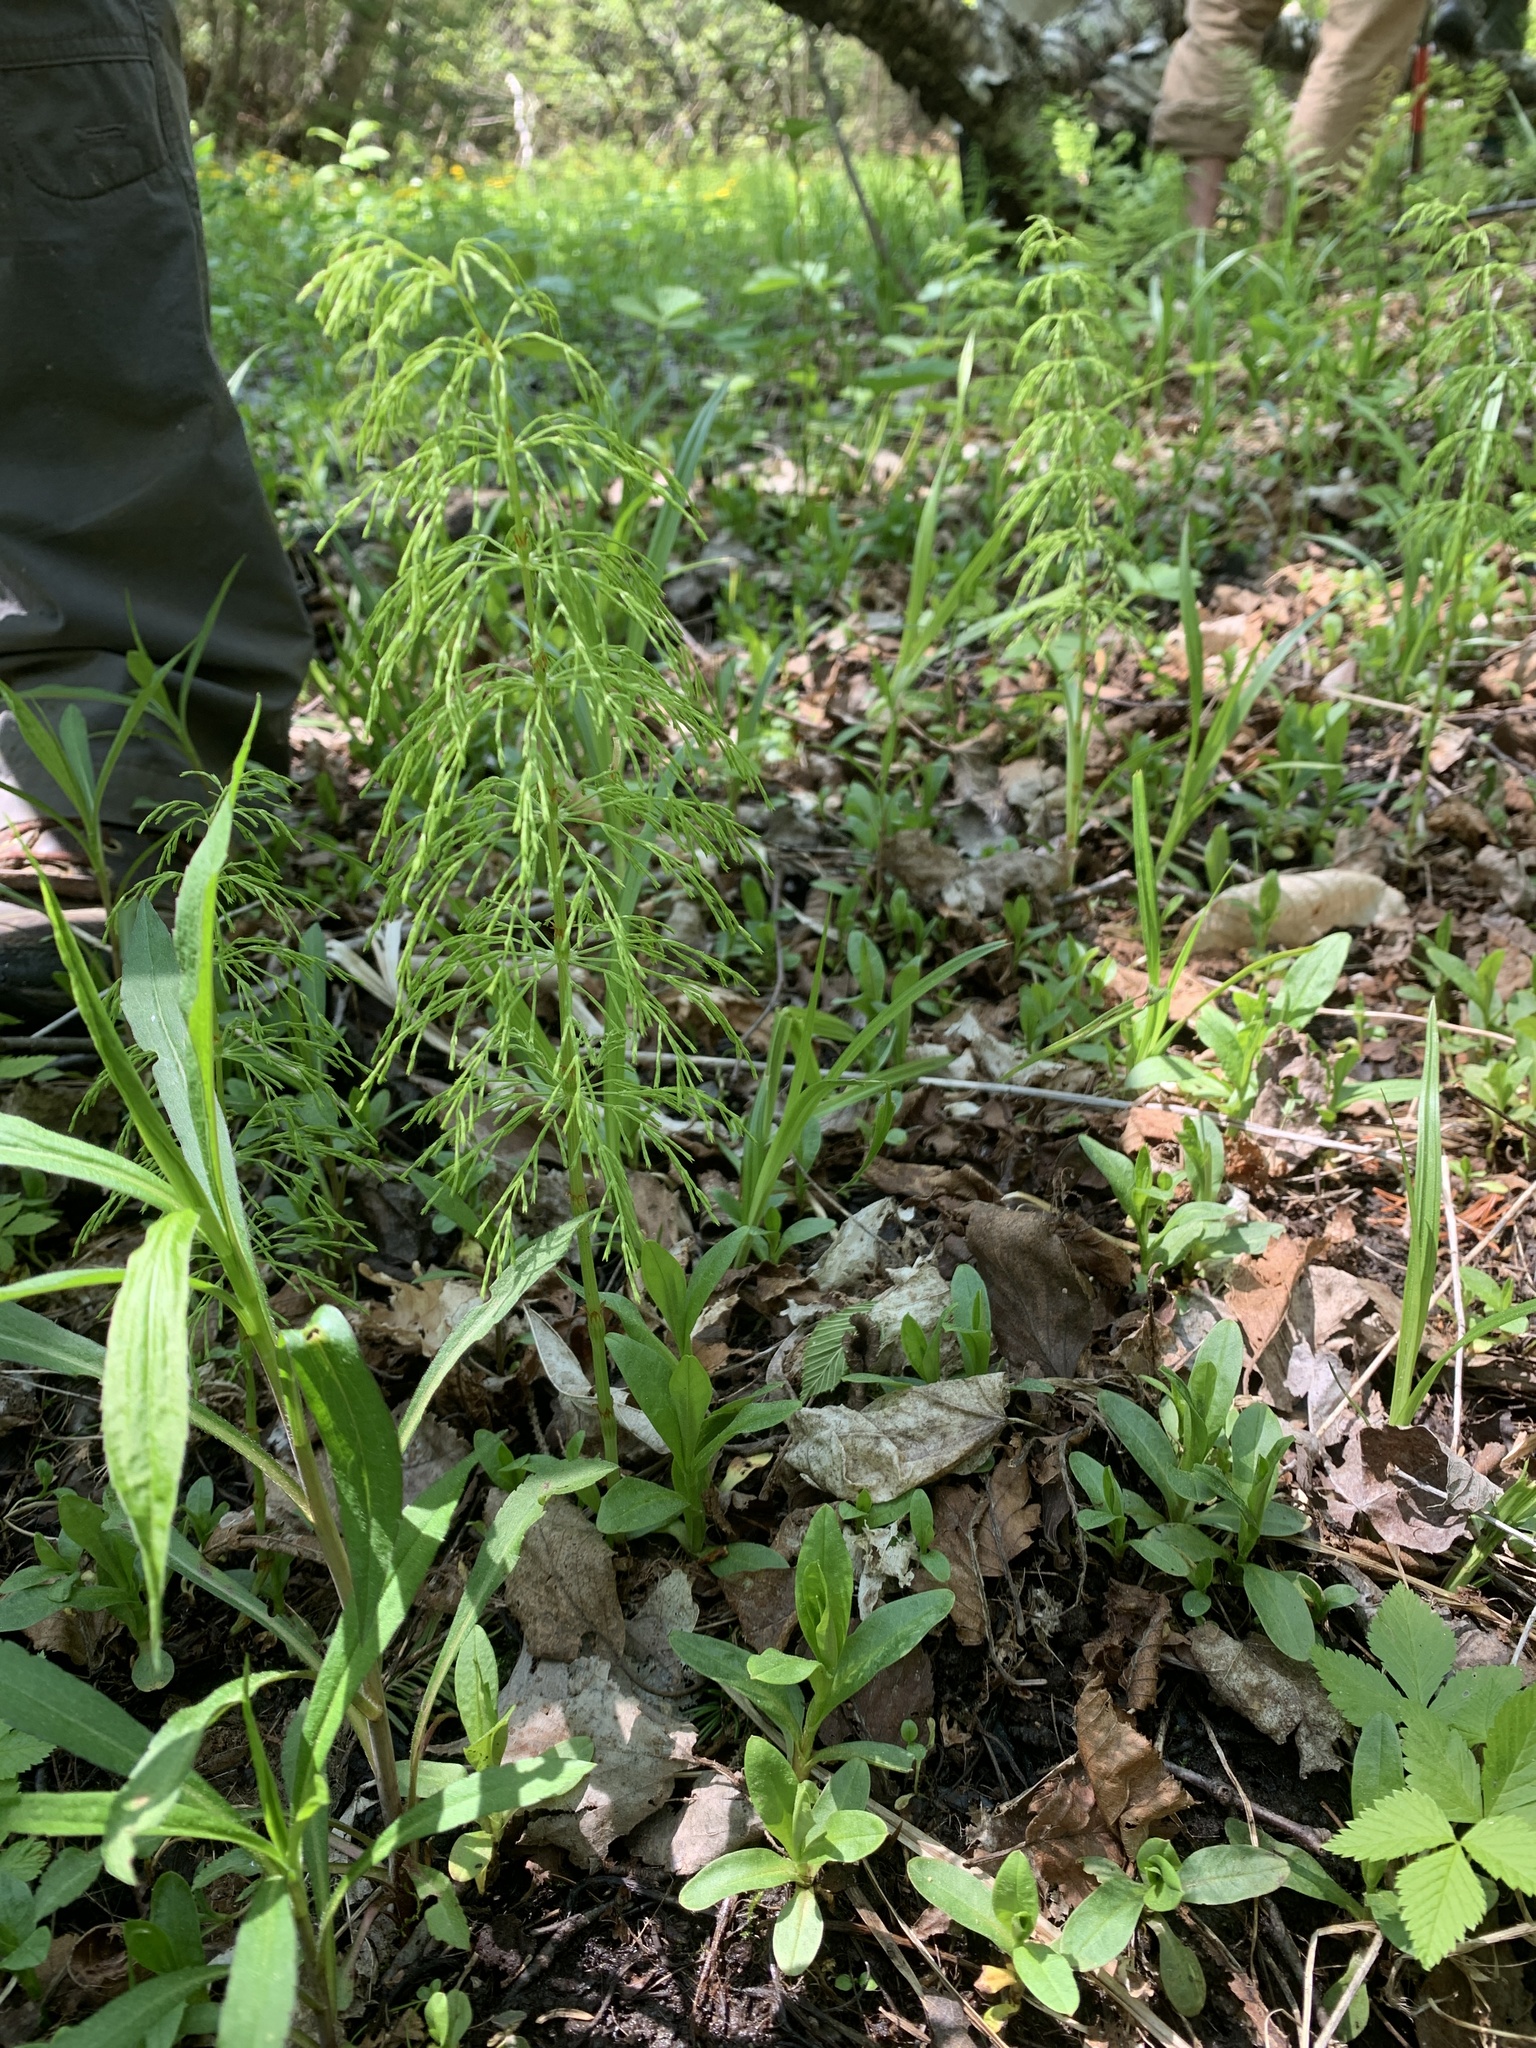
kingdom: Plantae
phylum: Tracheophyta
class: Polypodiopsida
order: Equisetales
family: Equisetaceae
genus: Equisetum
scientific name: Equisetum sylvaticum
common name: Wood horsetail
